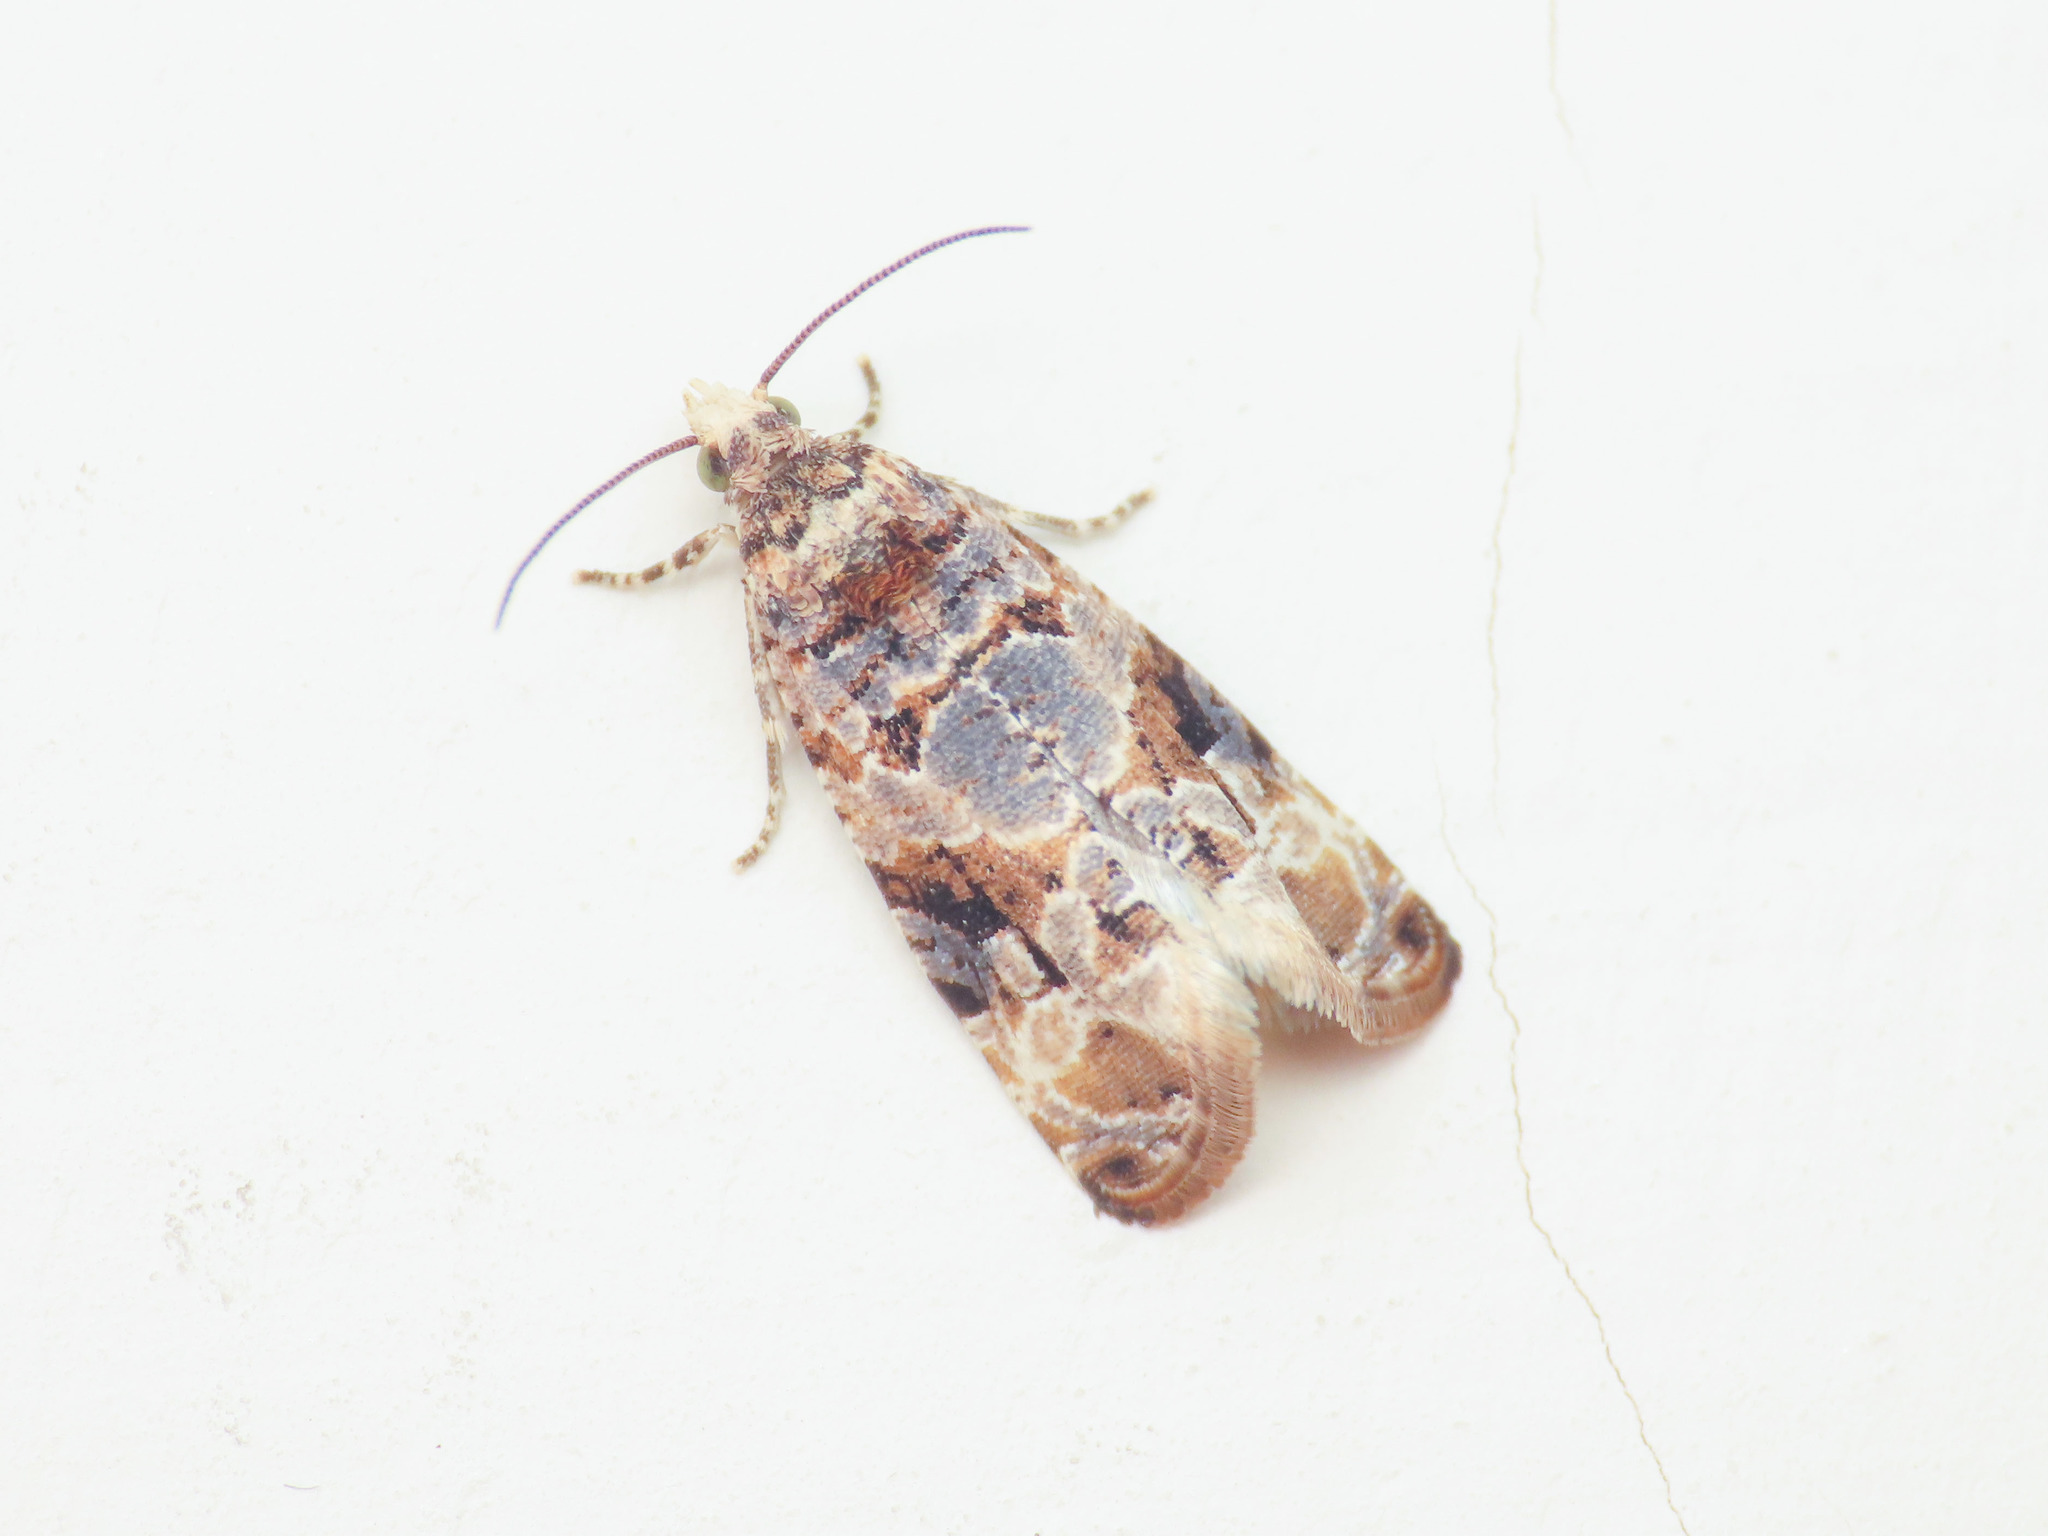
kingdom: Animalia
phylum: Arthropoda
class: Insecta
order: Lepidoptera
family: Tortricidae
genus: Lobesia
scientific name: Lobesia botrana
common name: European vine moth
